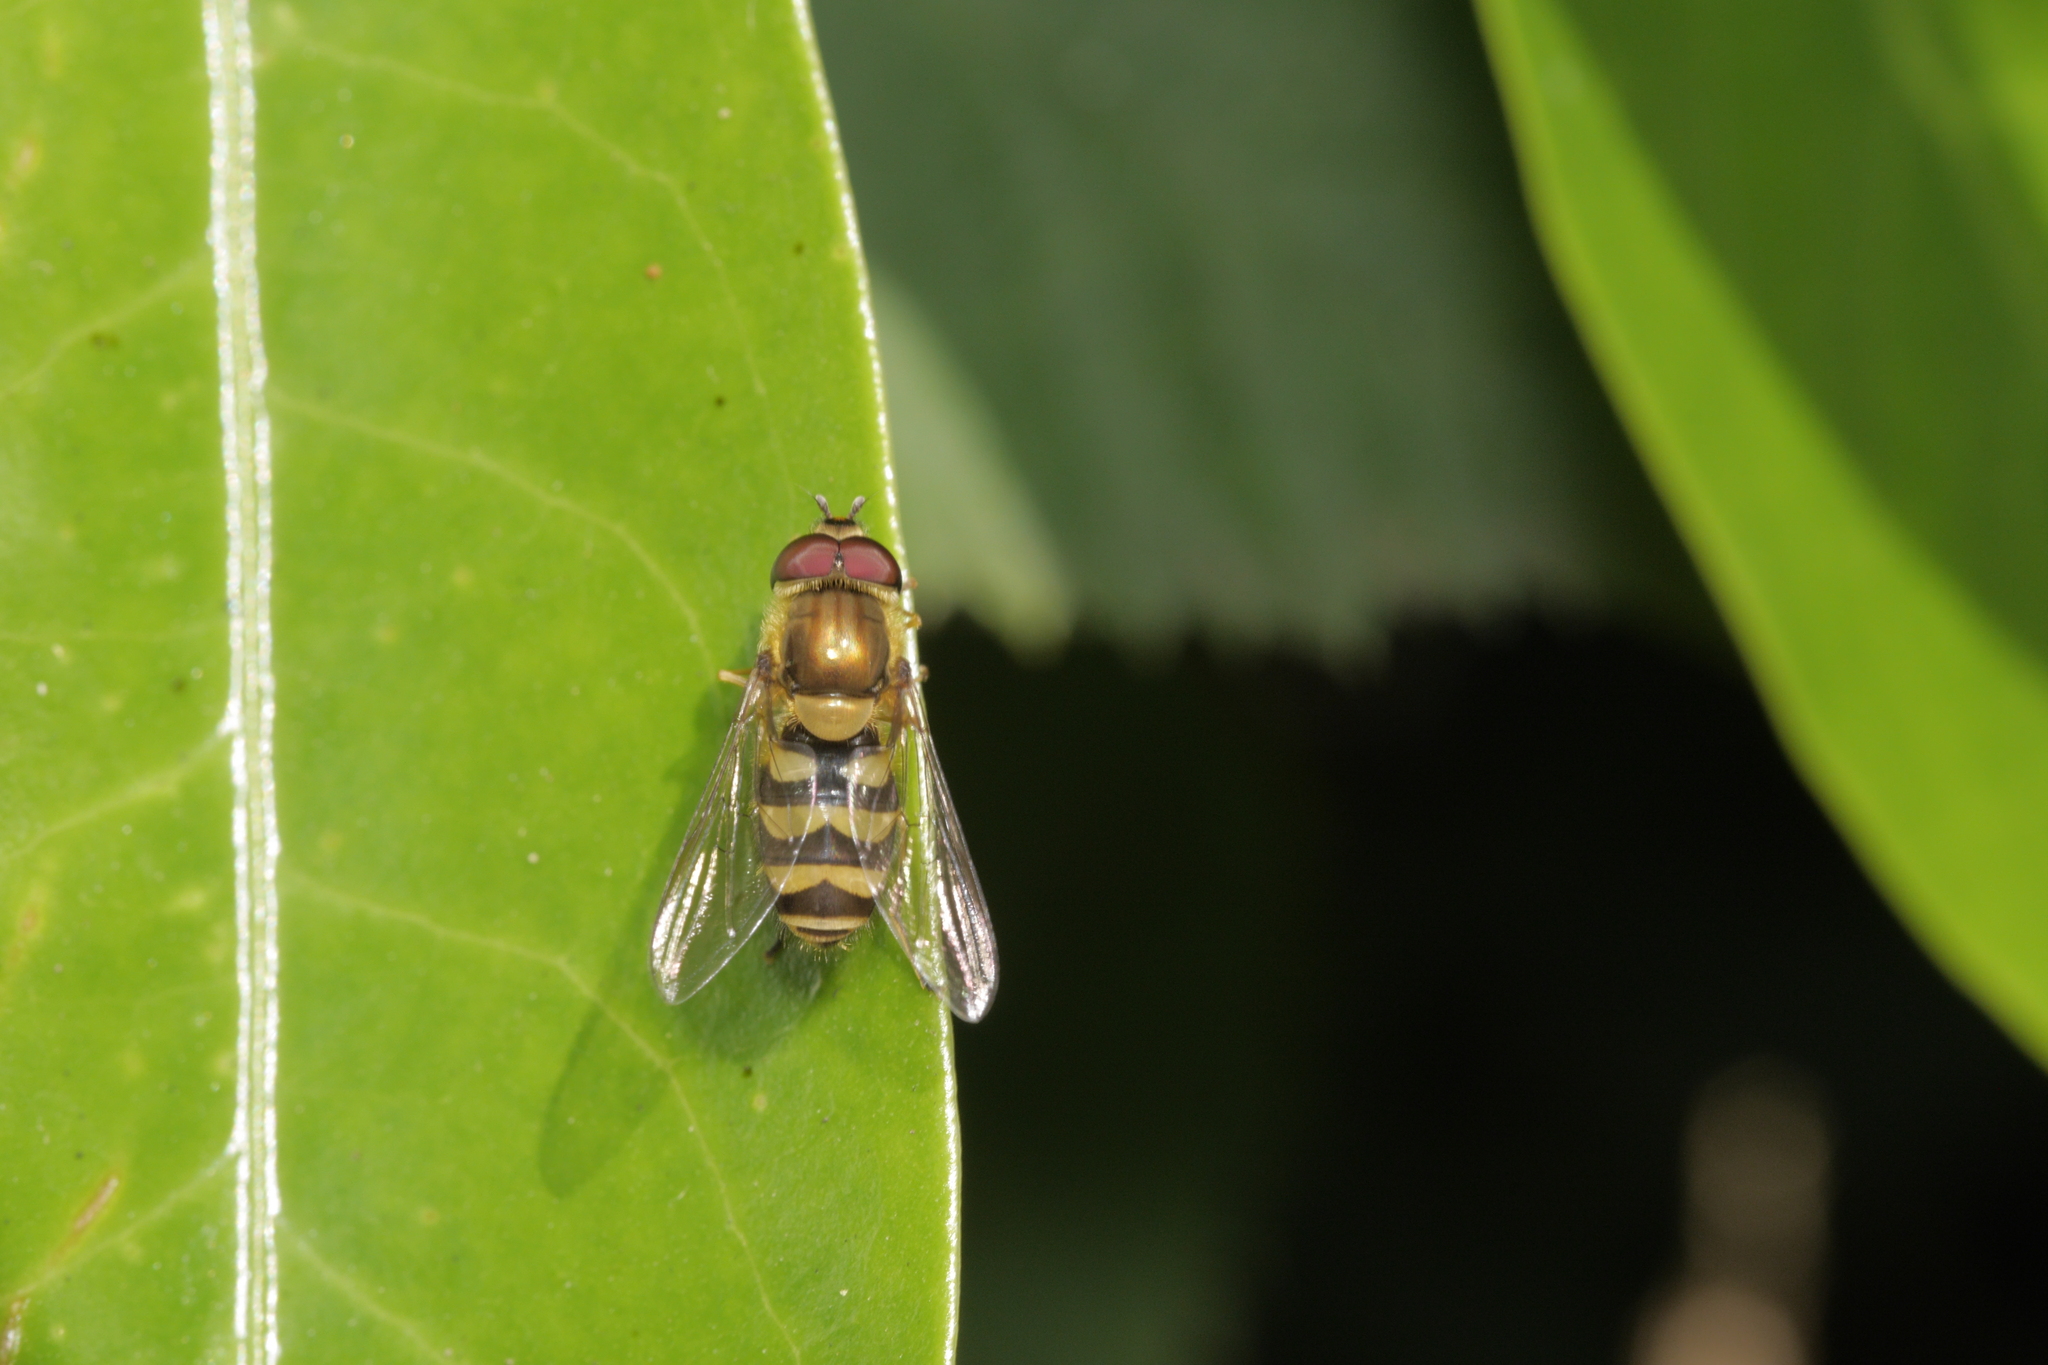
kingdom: Animalia
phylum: Arthropoda
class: Insecta
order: Diptera
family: Syrphidae
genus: Syrphus
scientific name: Syrphus
